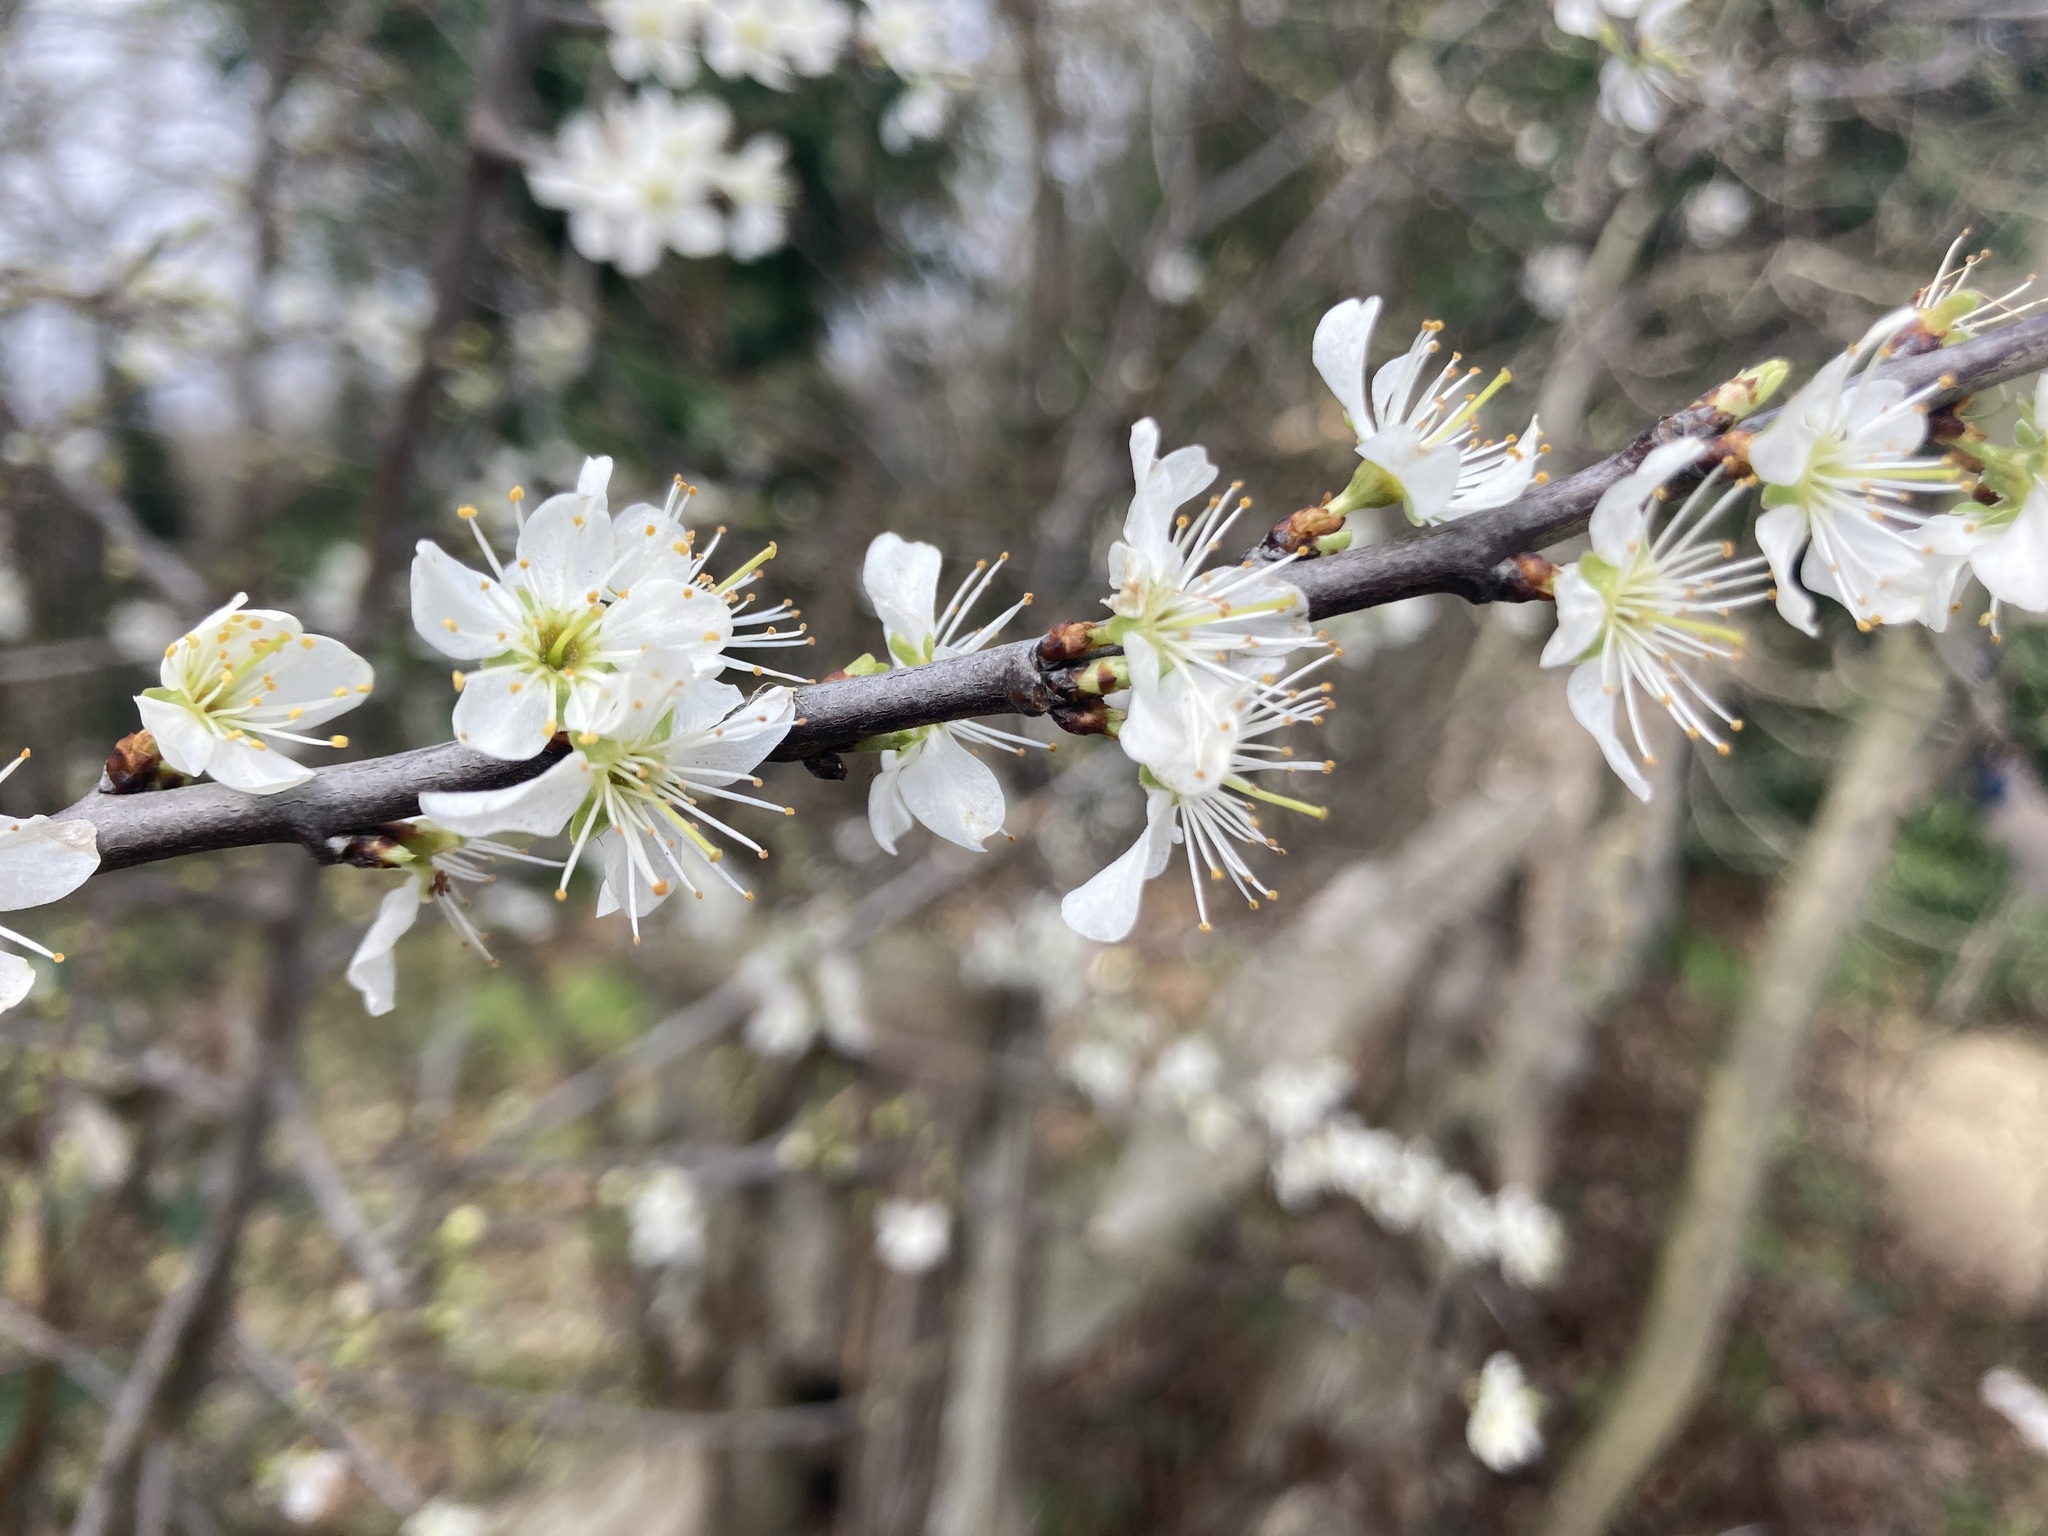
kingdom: Plantae
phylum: Tracheophyta
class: Magnoliopsida
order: Rosales
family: Rosaceae
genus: Prunus
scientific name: Prunus spinosa
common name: Blackthorn
